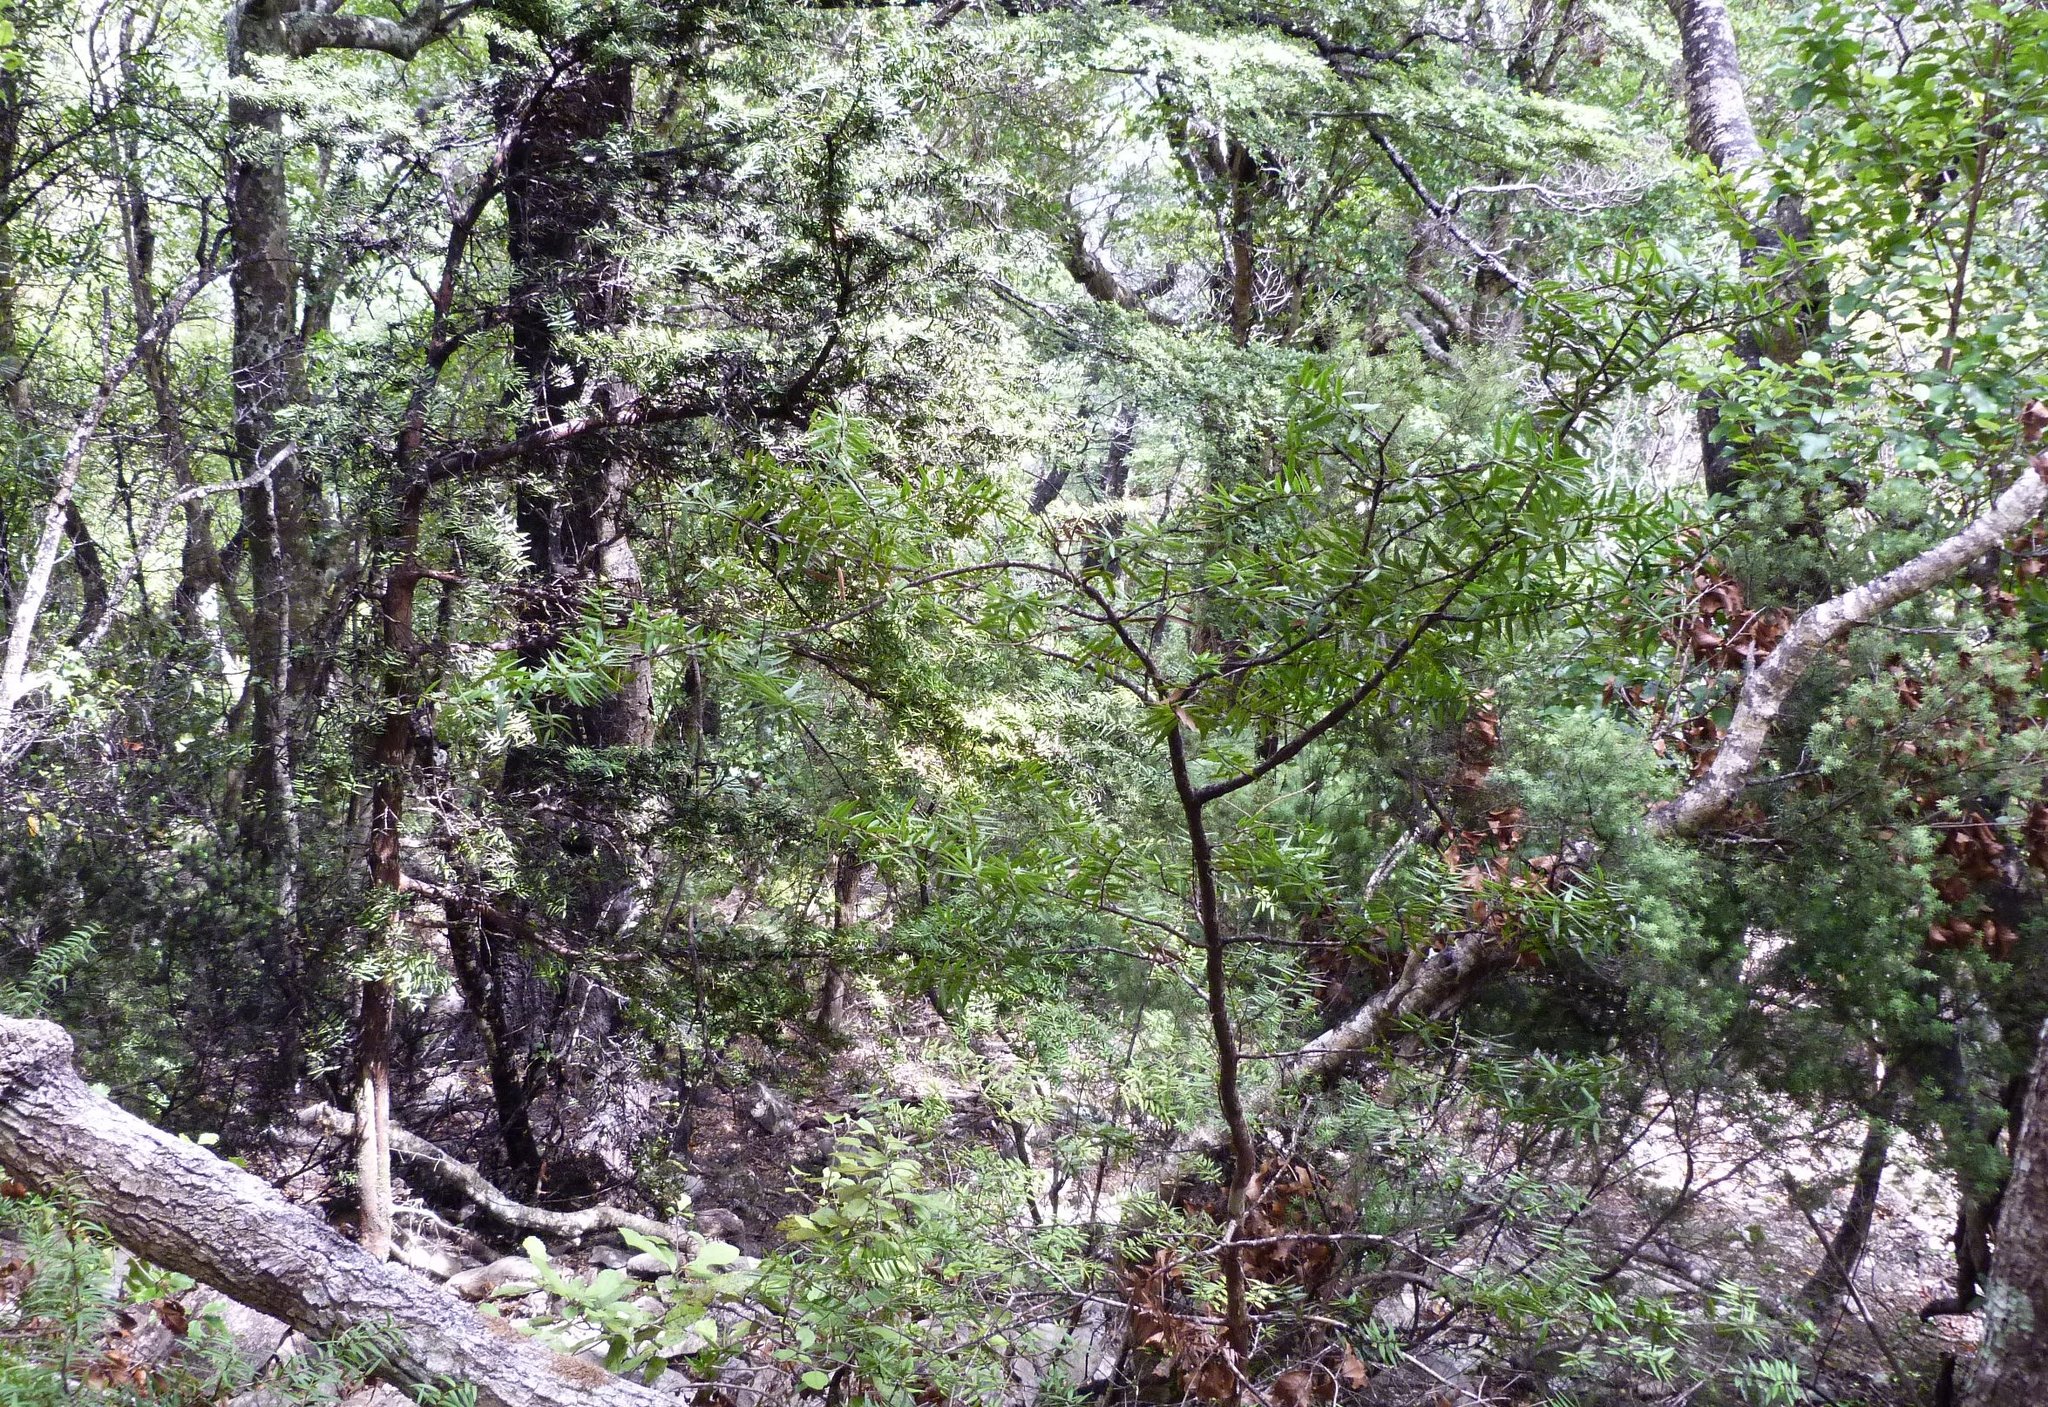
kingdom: Plantae
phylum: Tracheophyta
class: Pinopsida
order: Pinales
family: Podocarpaceae
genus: Podocarpus
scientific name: Podocarpus laetus
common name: Hall's totara
